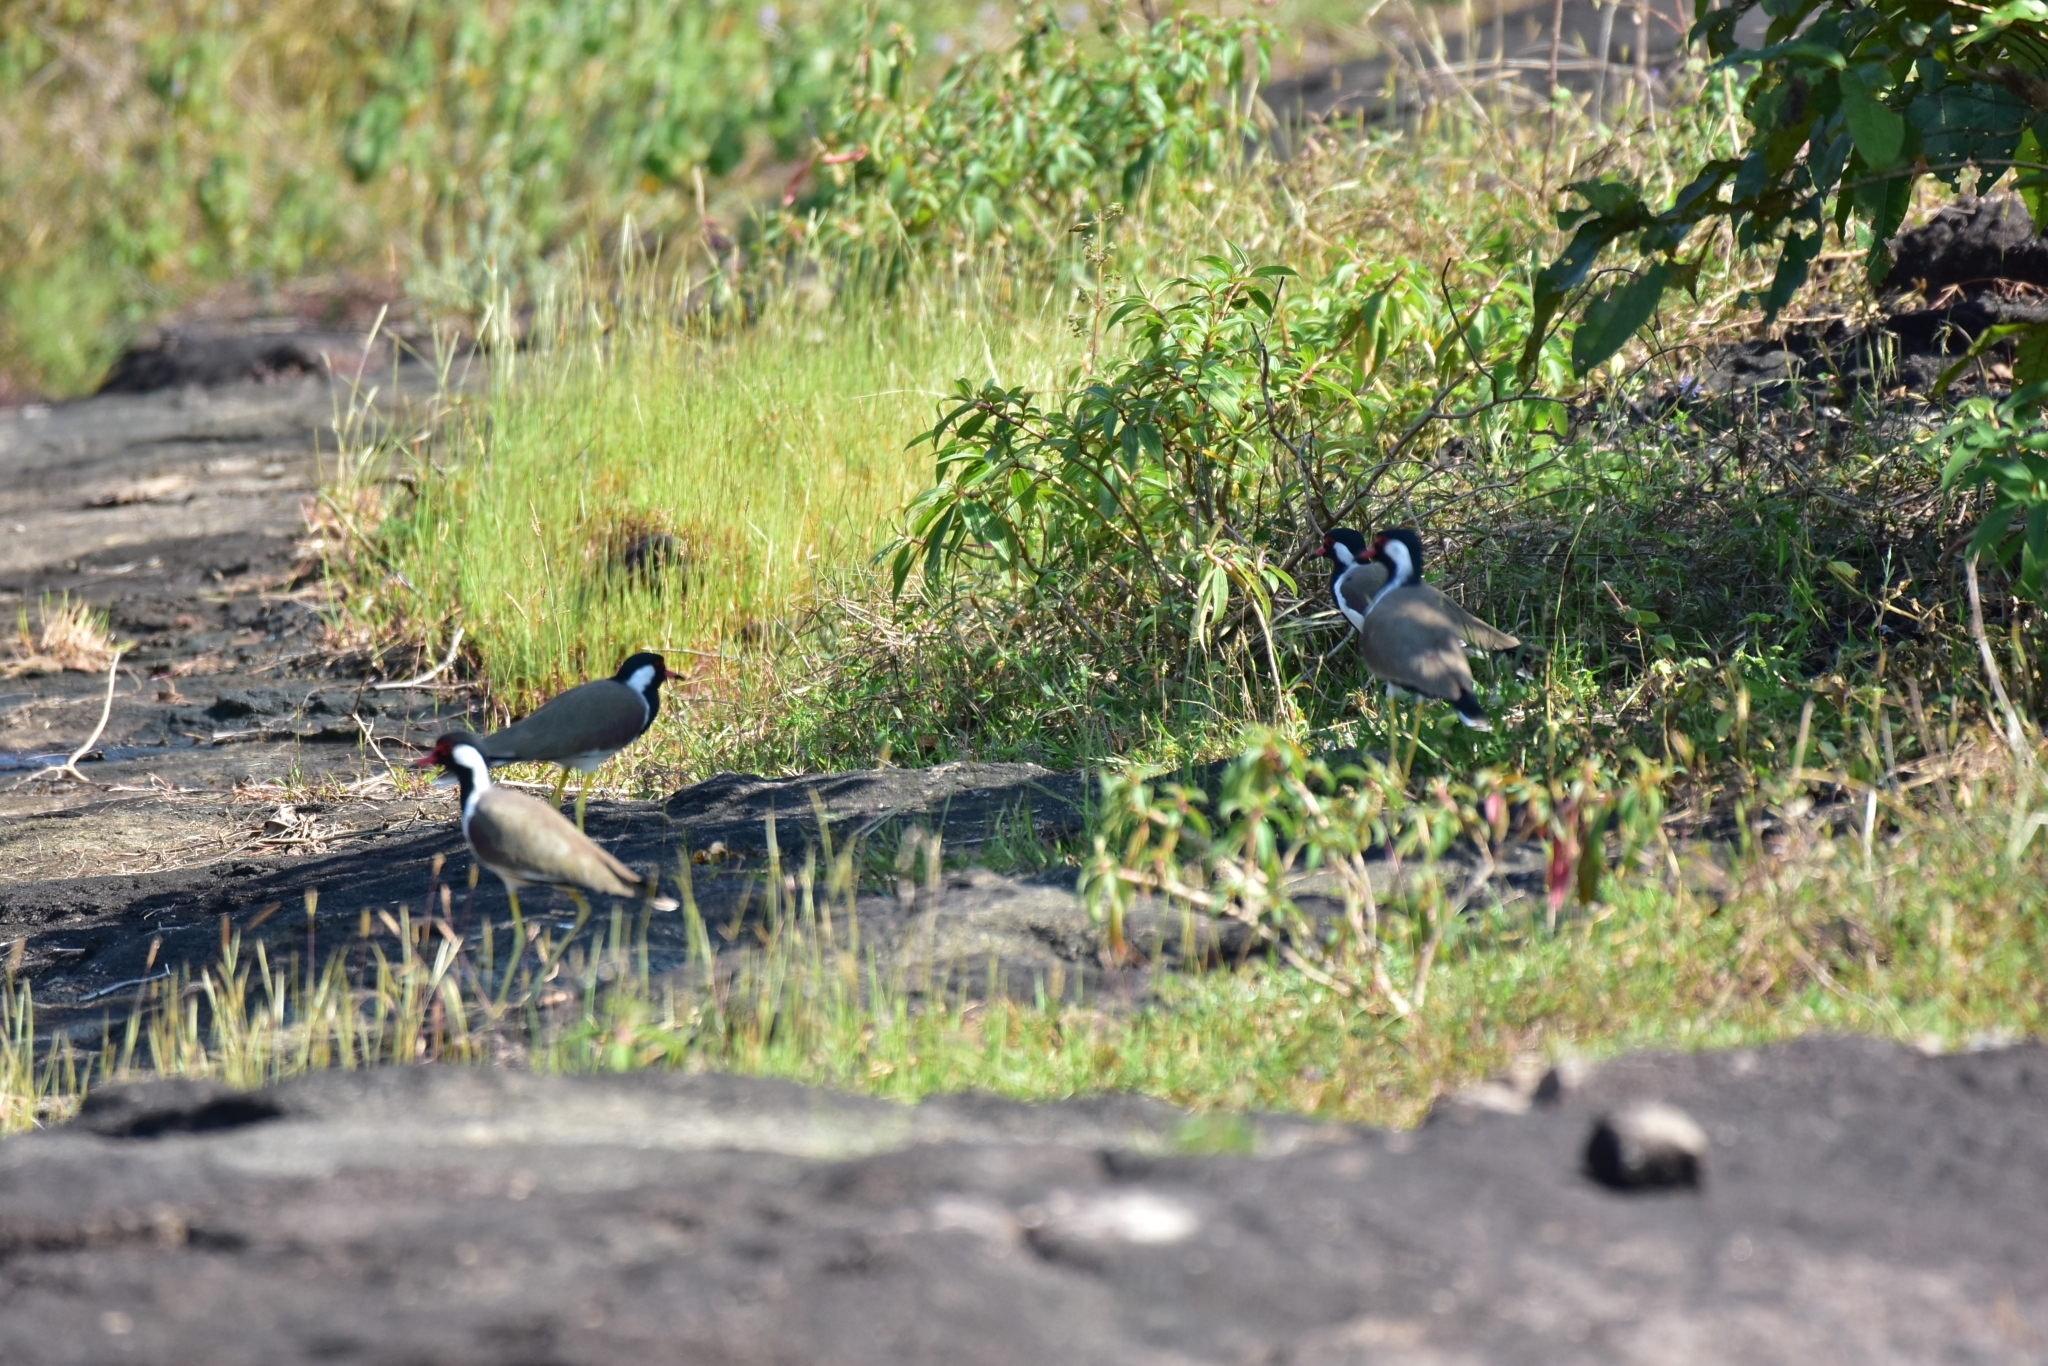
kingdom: Animalia
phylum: Chordata
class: Aves
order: Charadriiformes
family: Charadriidae
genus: Vanellus
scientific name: Vanellus indicus
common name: Red-wattled lapwing
